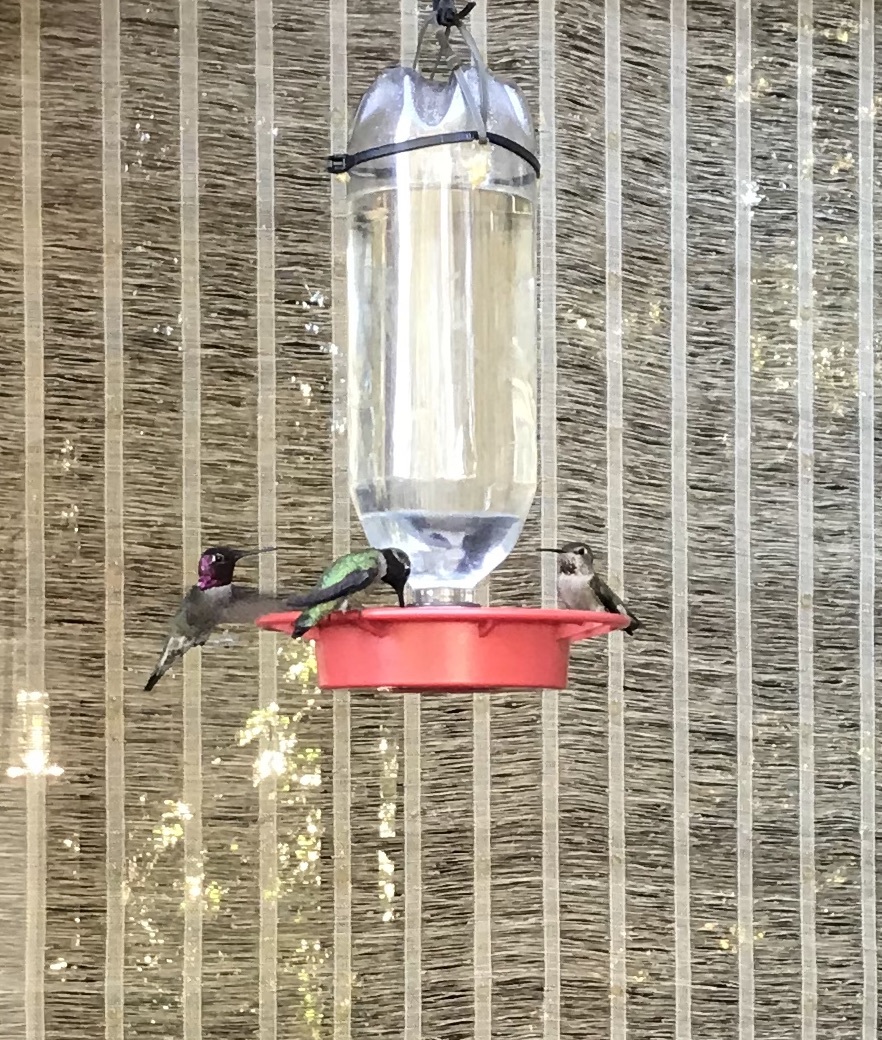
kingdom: Animalia
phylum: Chordata
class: Aves
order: Apodiformes
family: Trochilidae
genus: Calypte
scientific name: Calypte anna
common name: Anna's hummingbird
